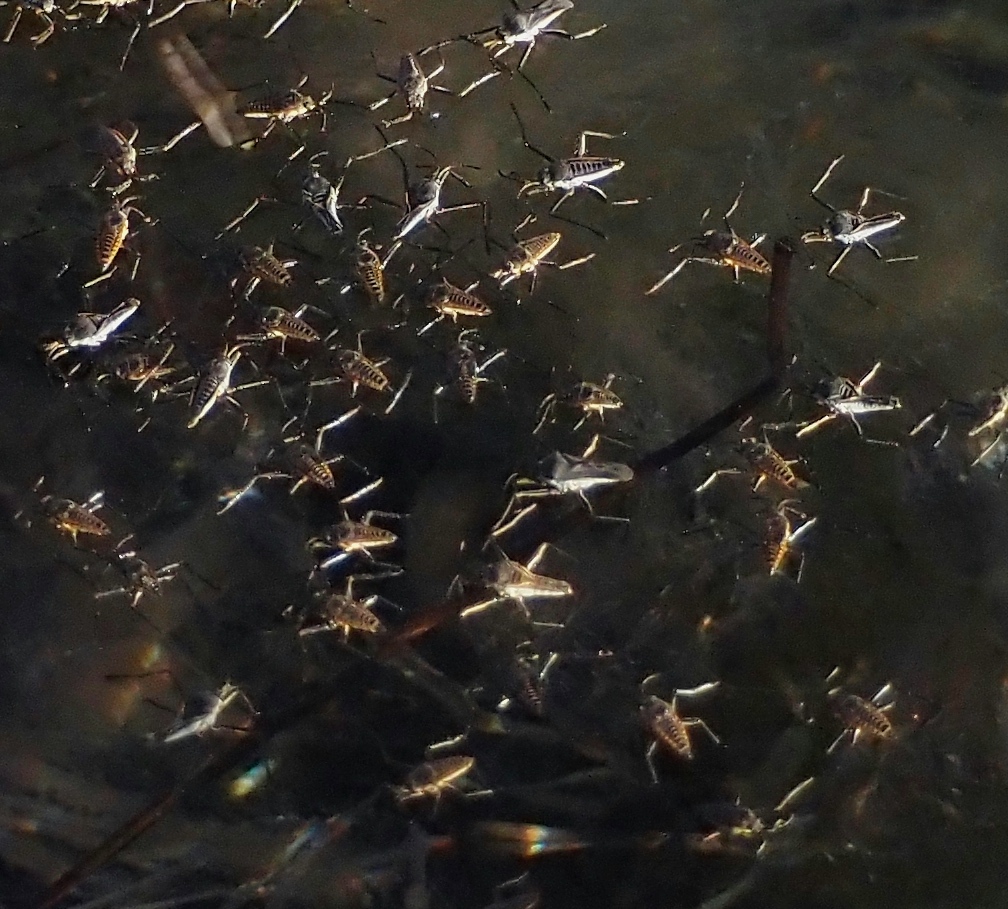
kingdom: Animalia
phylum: Arthropoda
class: Insecta
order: Hemiptera
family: Veliidae
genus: Rhagovelia
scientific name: Rhagovelia distincta
